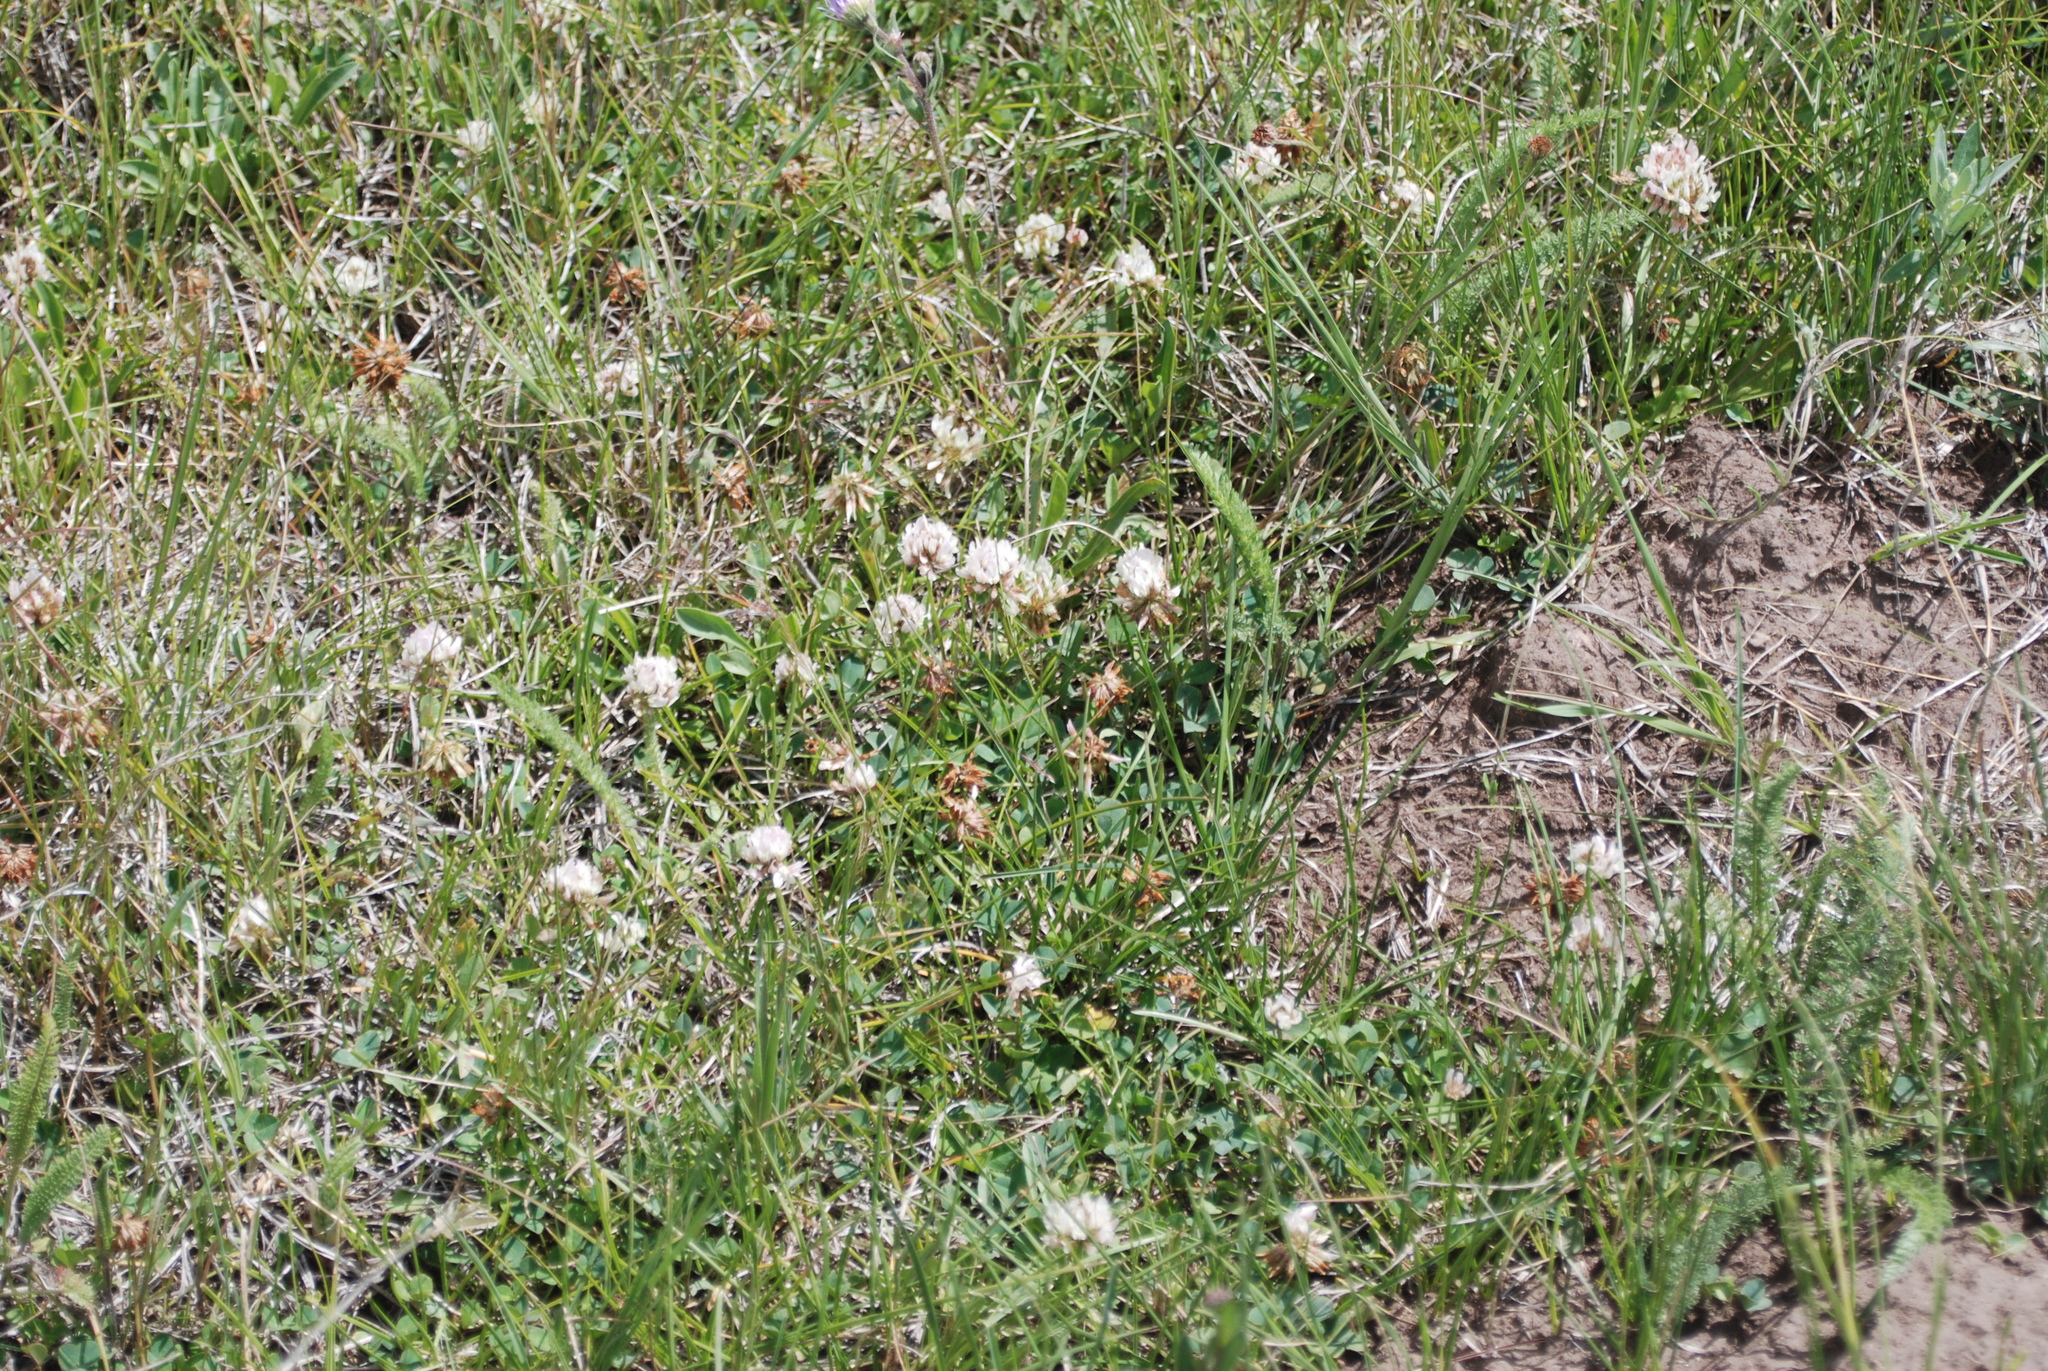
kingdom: Plantae
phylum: Tracheophyta
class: Magnoliopsida
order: Fabales
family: Fabaceae
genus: Trifolium
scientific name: Trifolium repens
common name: White clover
